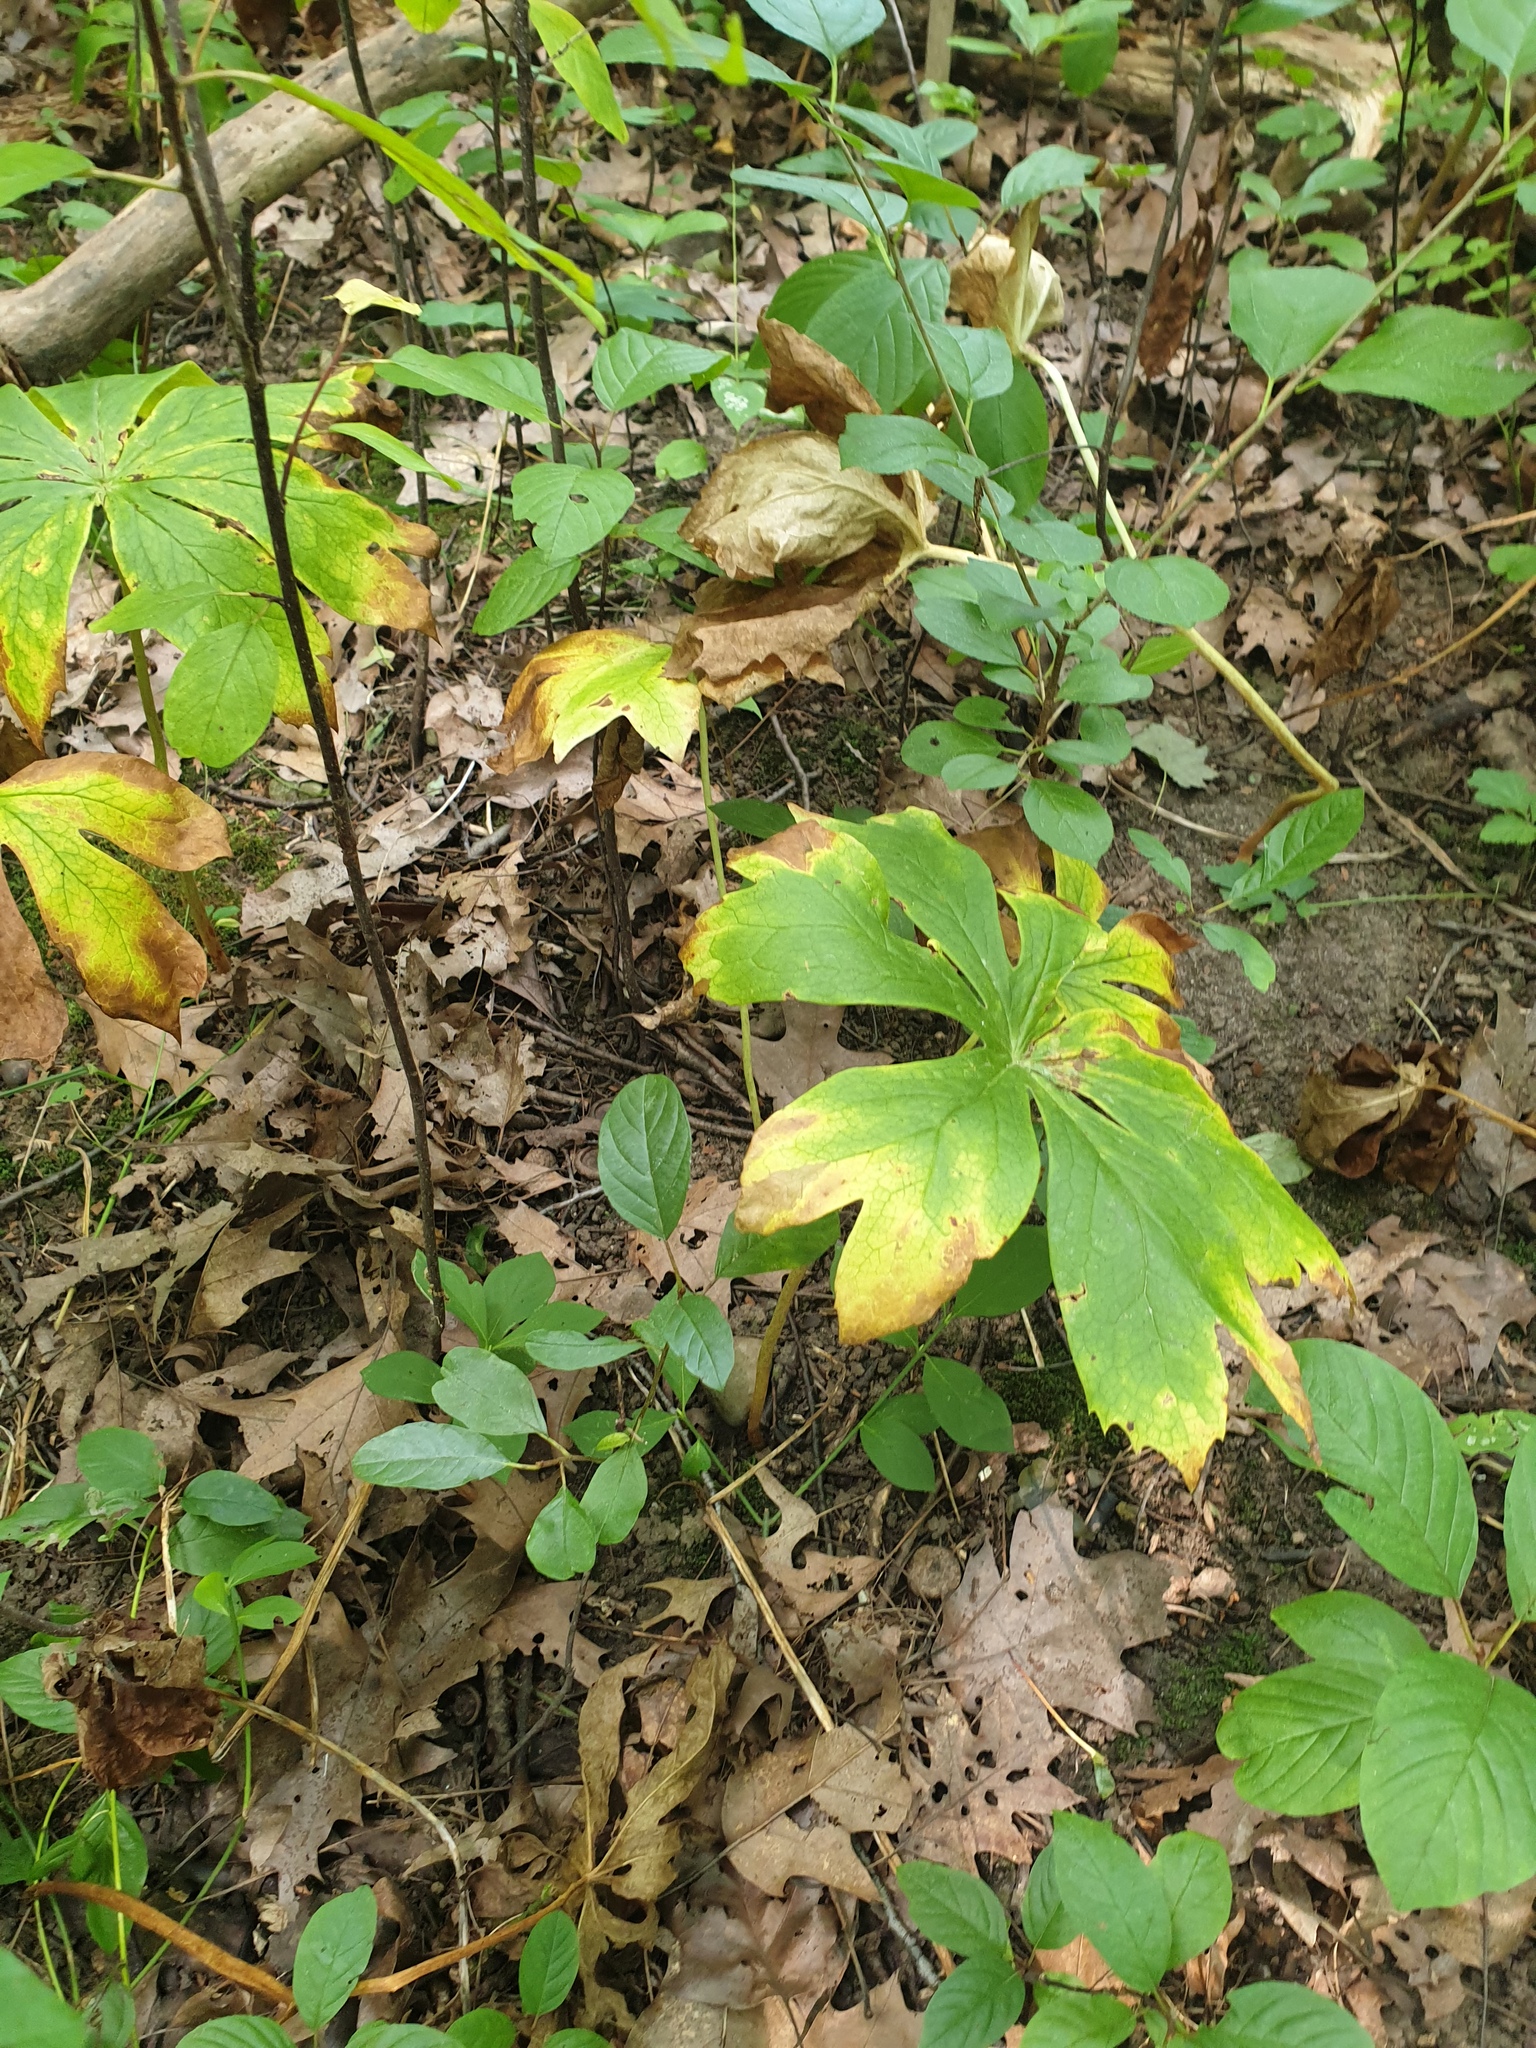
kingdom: Plantae
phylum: Tracheophyta
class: Magnoliopsida
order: Ranunculales
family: Berberidaceae
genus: Podophyllum
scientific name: Podophyllum peltatum
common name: Wild mandrake
